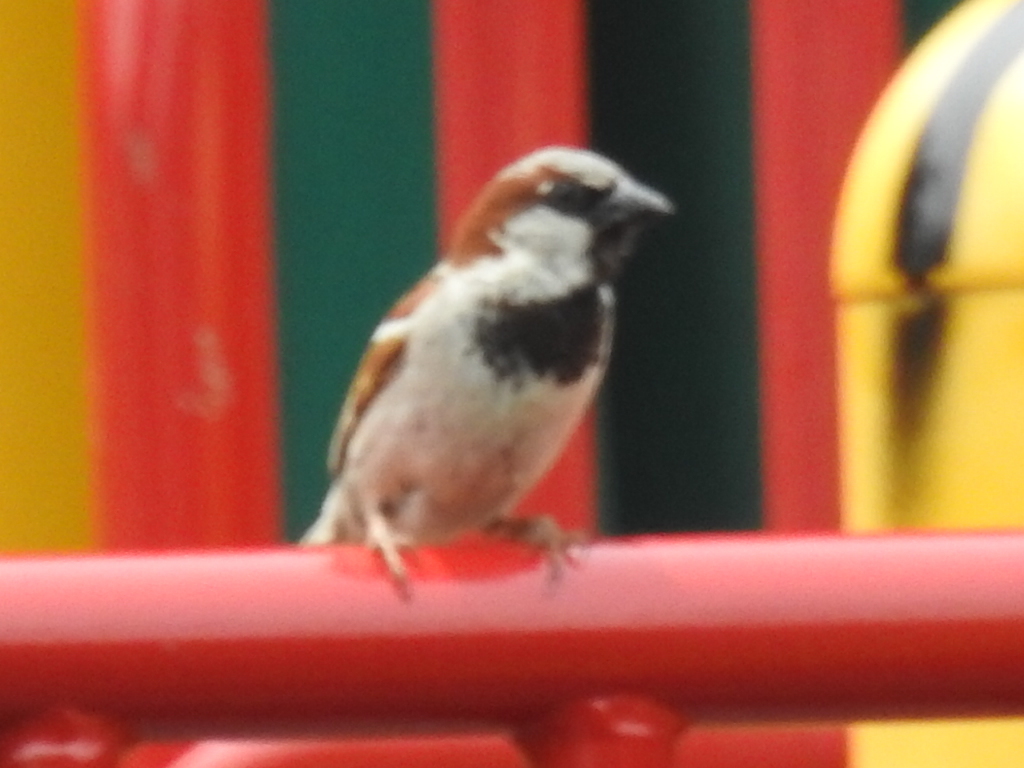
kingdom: Animalia
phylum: Chordata
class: Aves
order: Passeriformes
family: Passeridae
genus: Passer
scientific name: Passer domesticus
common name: House sparrow
